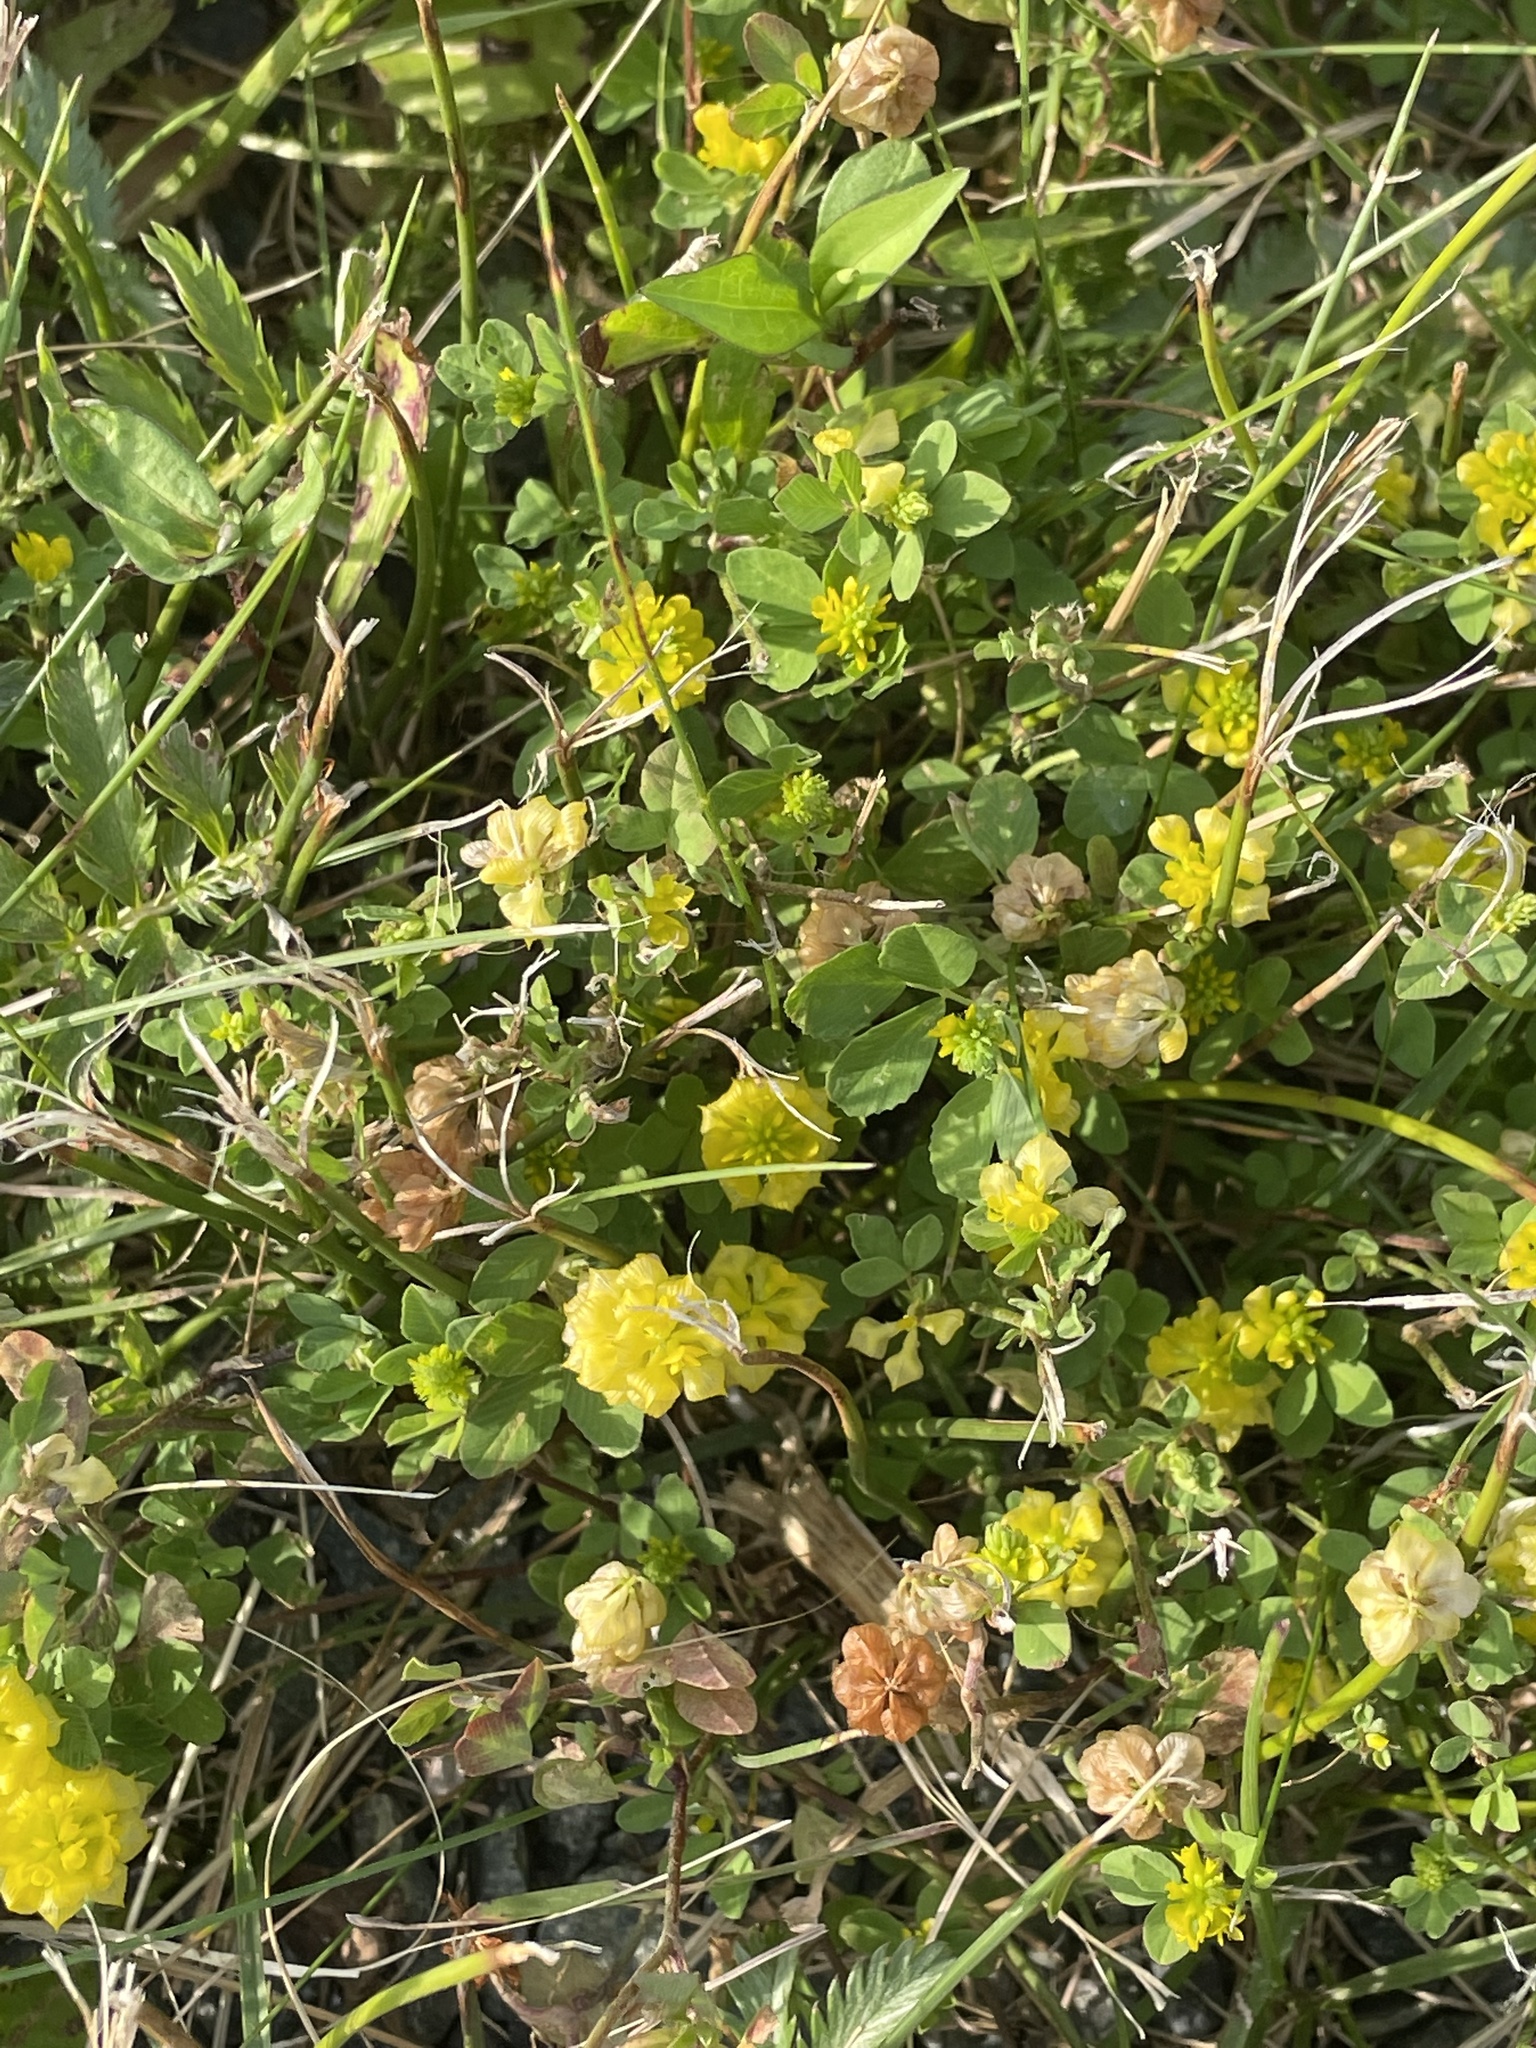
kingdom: Plantae
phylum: Tracheophyta
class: Magnoliopsida
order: Fabales
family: Fabaceae
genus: Trifolium
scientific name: Trifolium campestre
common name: Field clover
